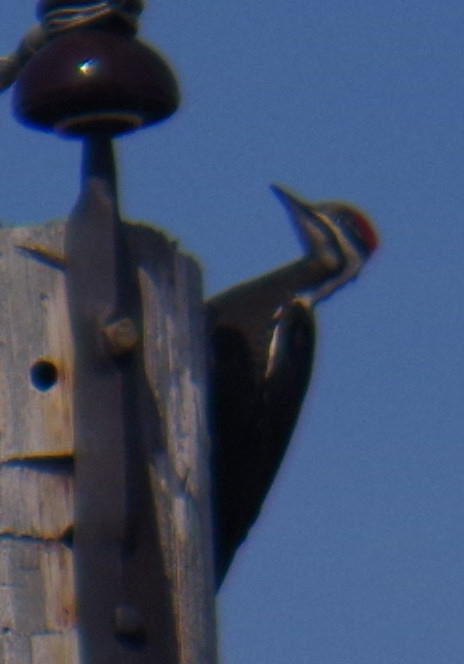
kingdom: Animalia
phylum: Chordata
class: Aves
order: Piciformes
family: Picidae
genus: Dryocopus
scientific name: Dryocopus pileatus
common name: Pileated woodpecker
